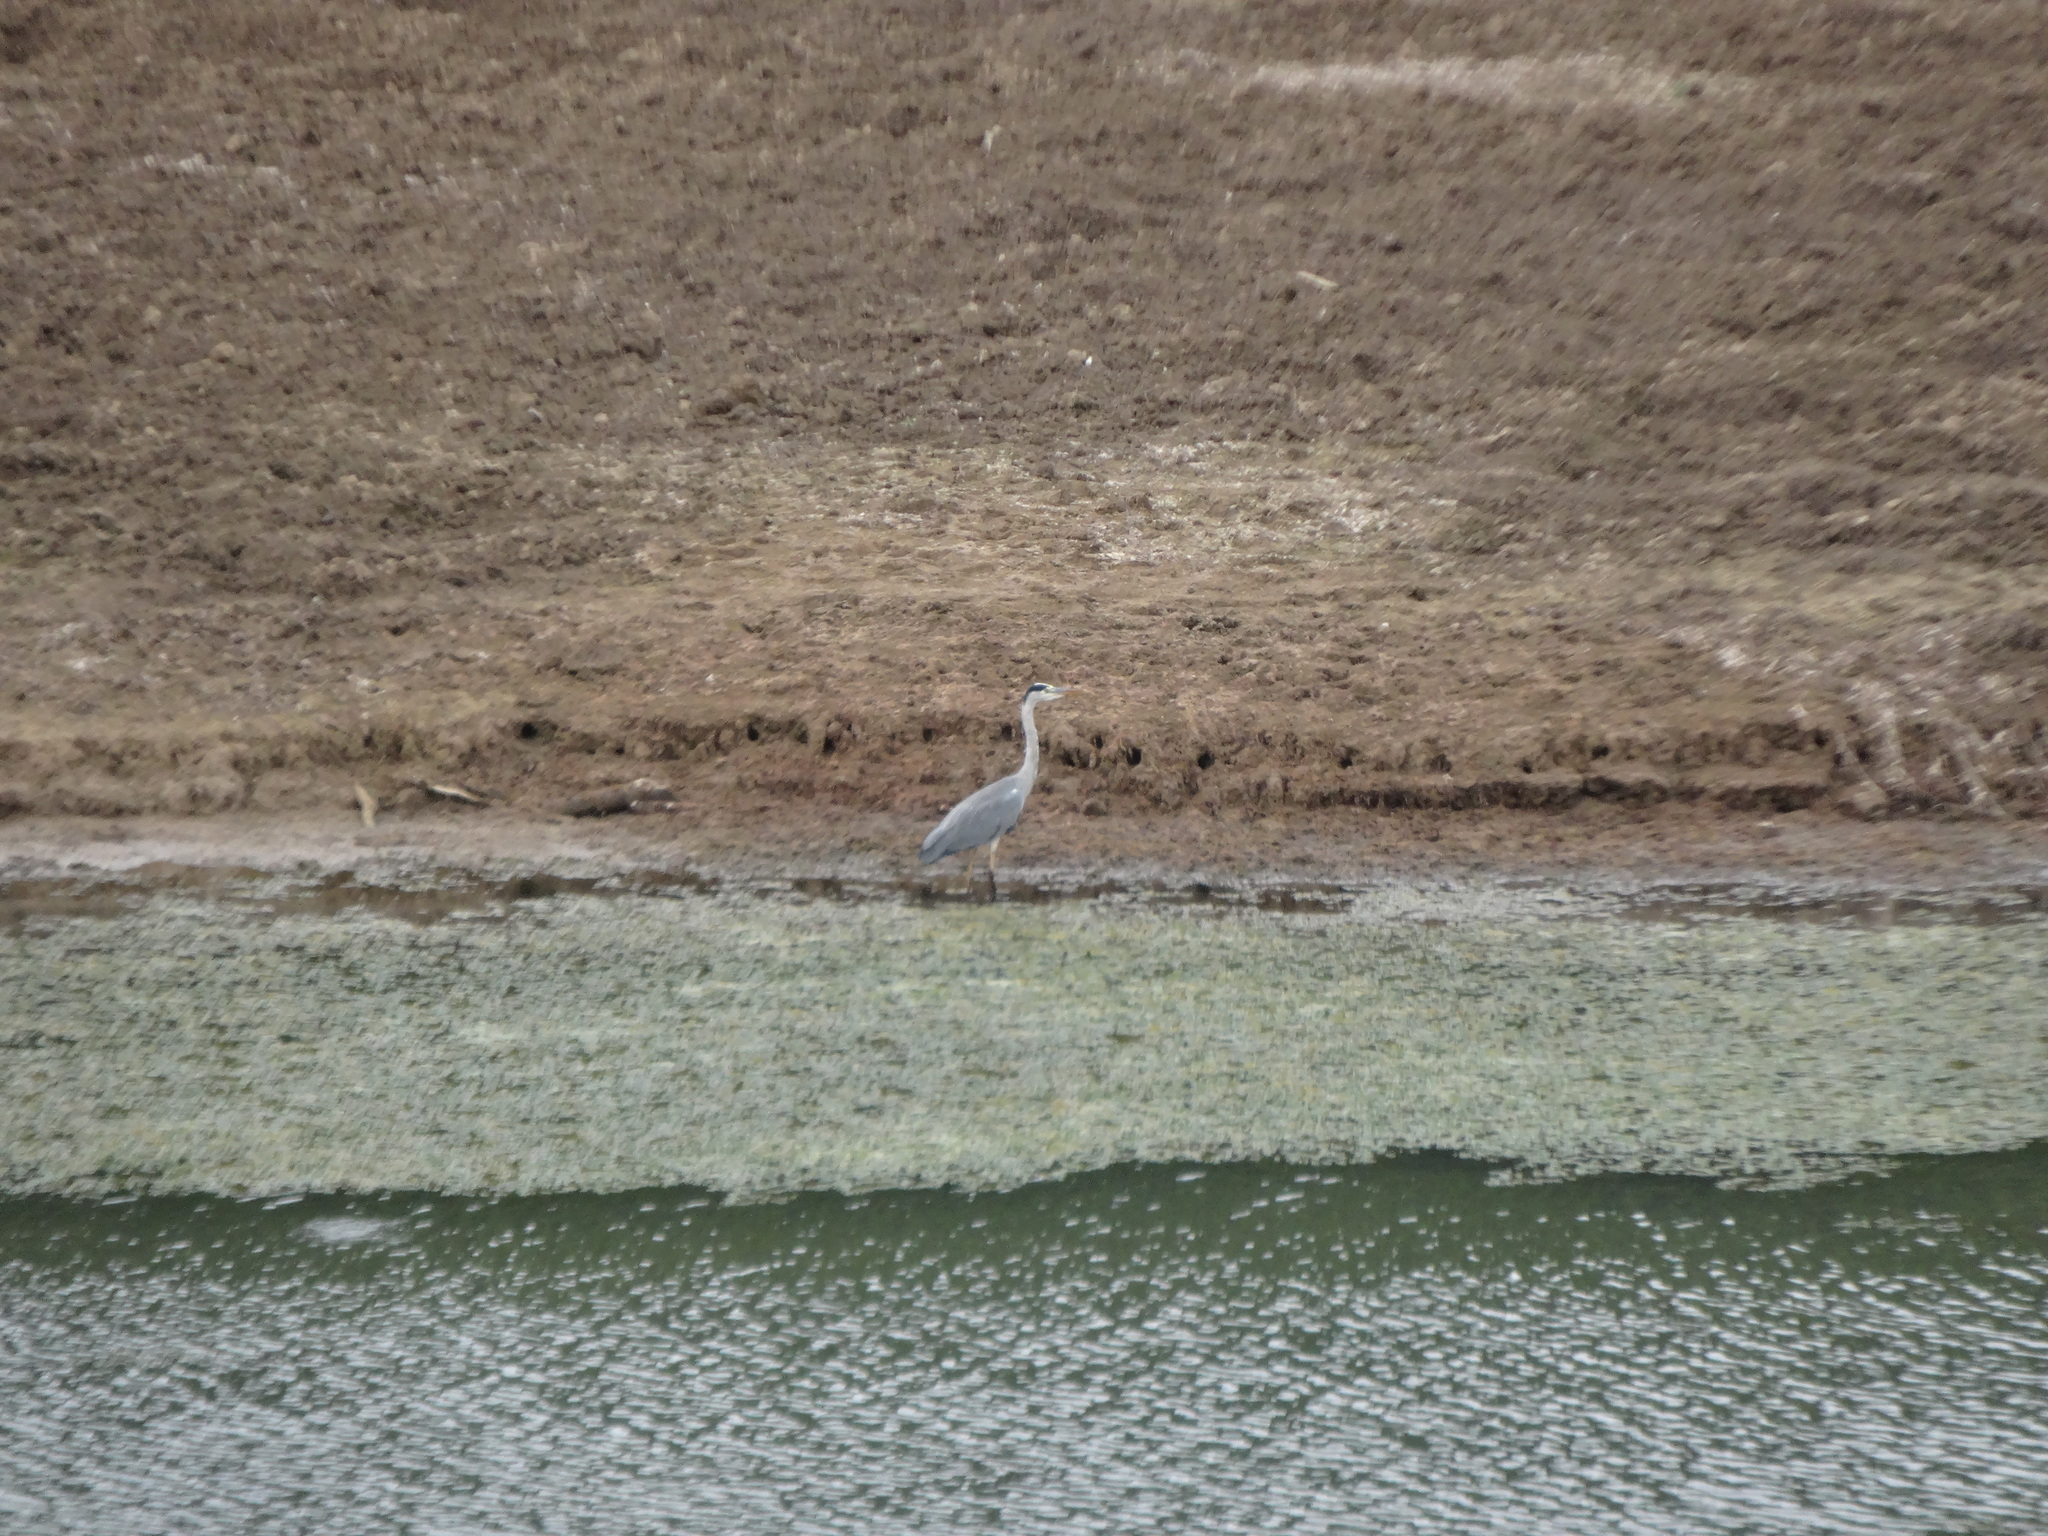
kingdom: Animalia
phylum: Chordata
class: Aves
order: Pelecaniformes
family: Ardeidae
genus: Ardea
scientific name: Ardea cinerea
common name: Grey heron
